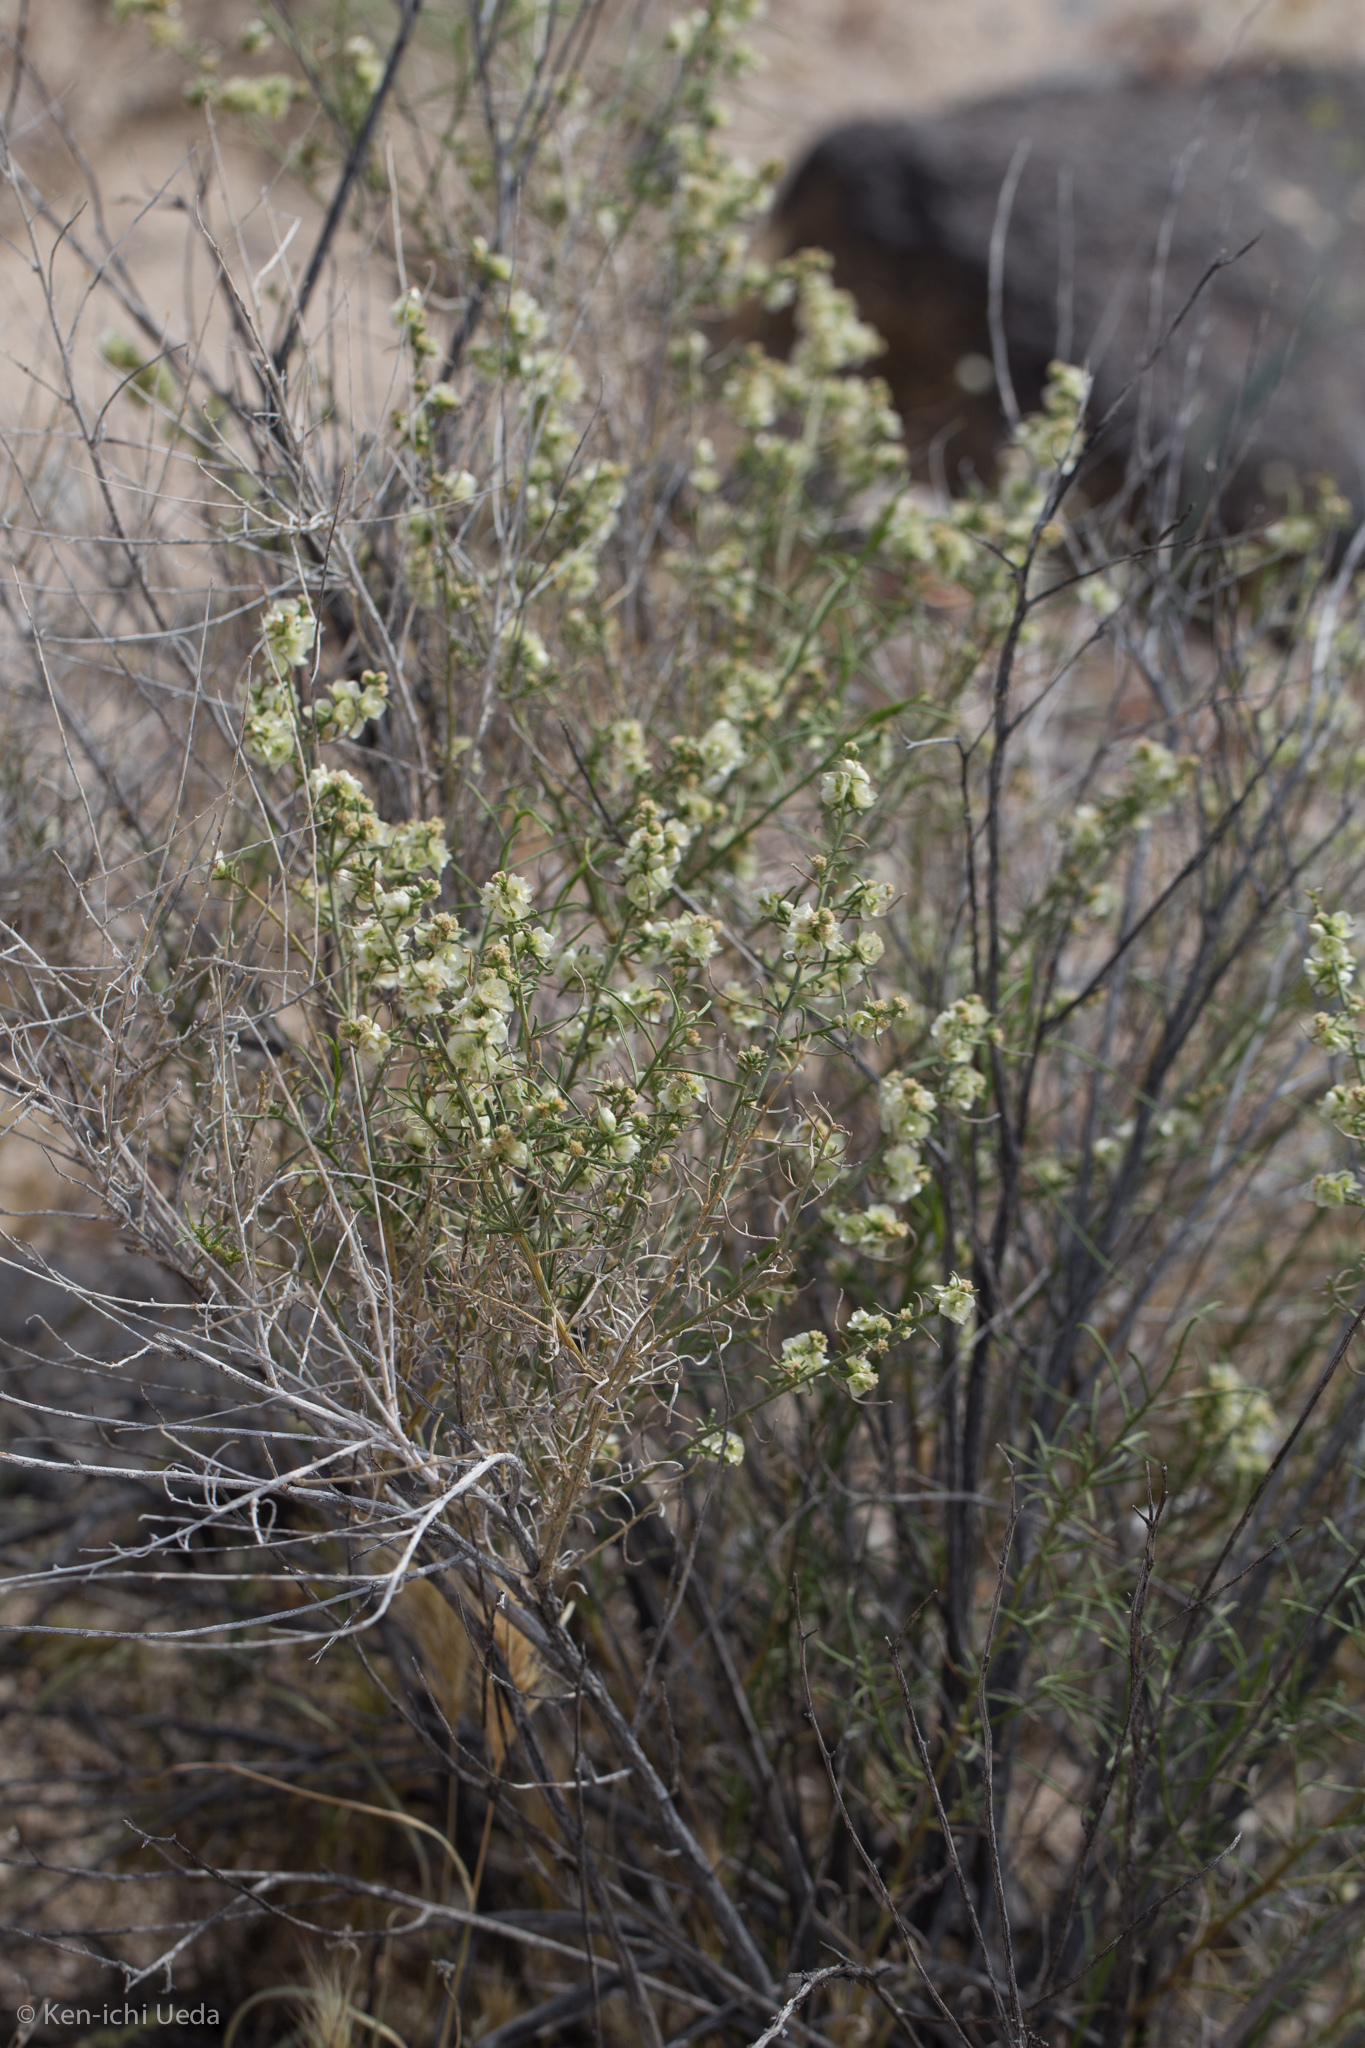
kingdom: Plantae
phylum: Tracheophyta
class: Magnoliopsida
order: Asterales
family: Asteraceae
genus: Ambrosia
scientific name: Ambrosia salsola
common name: Burrobrush
